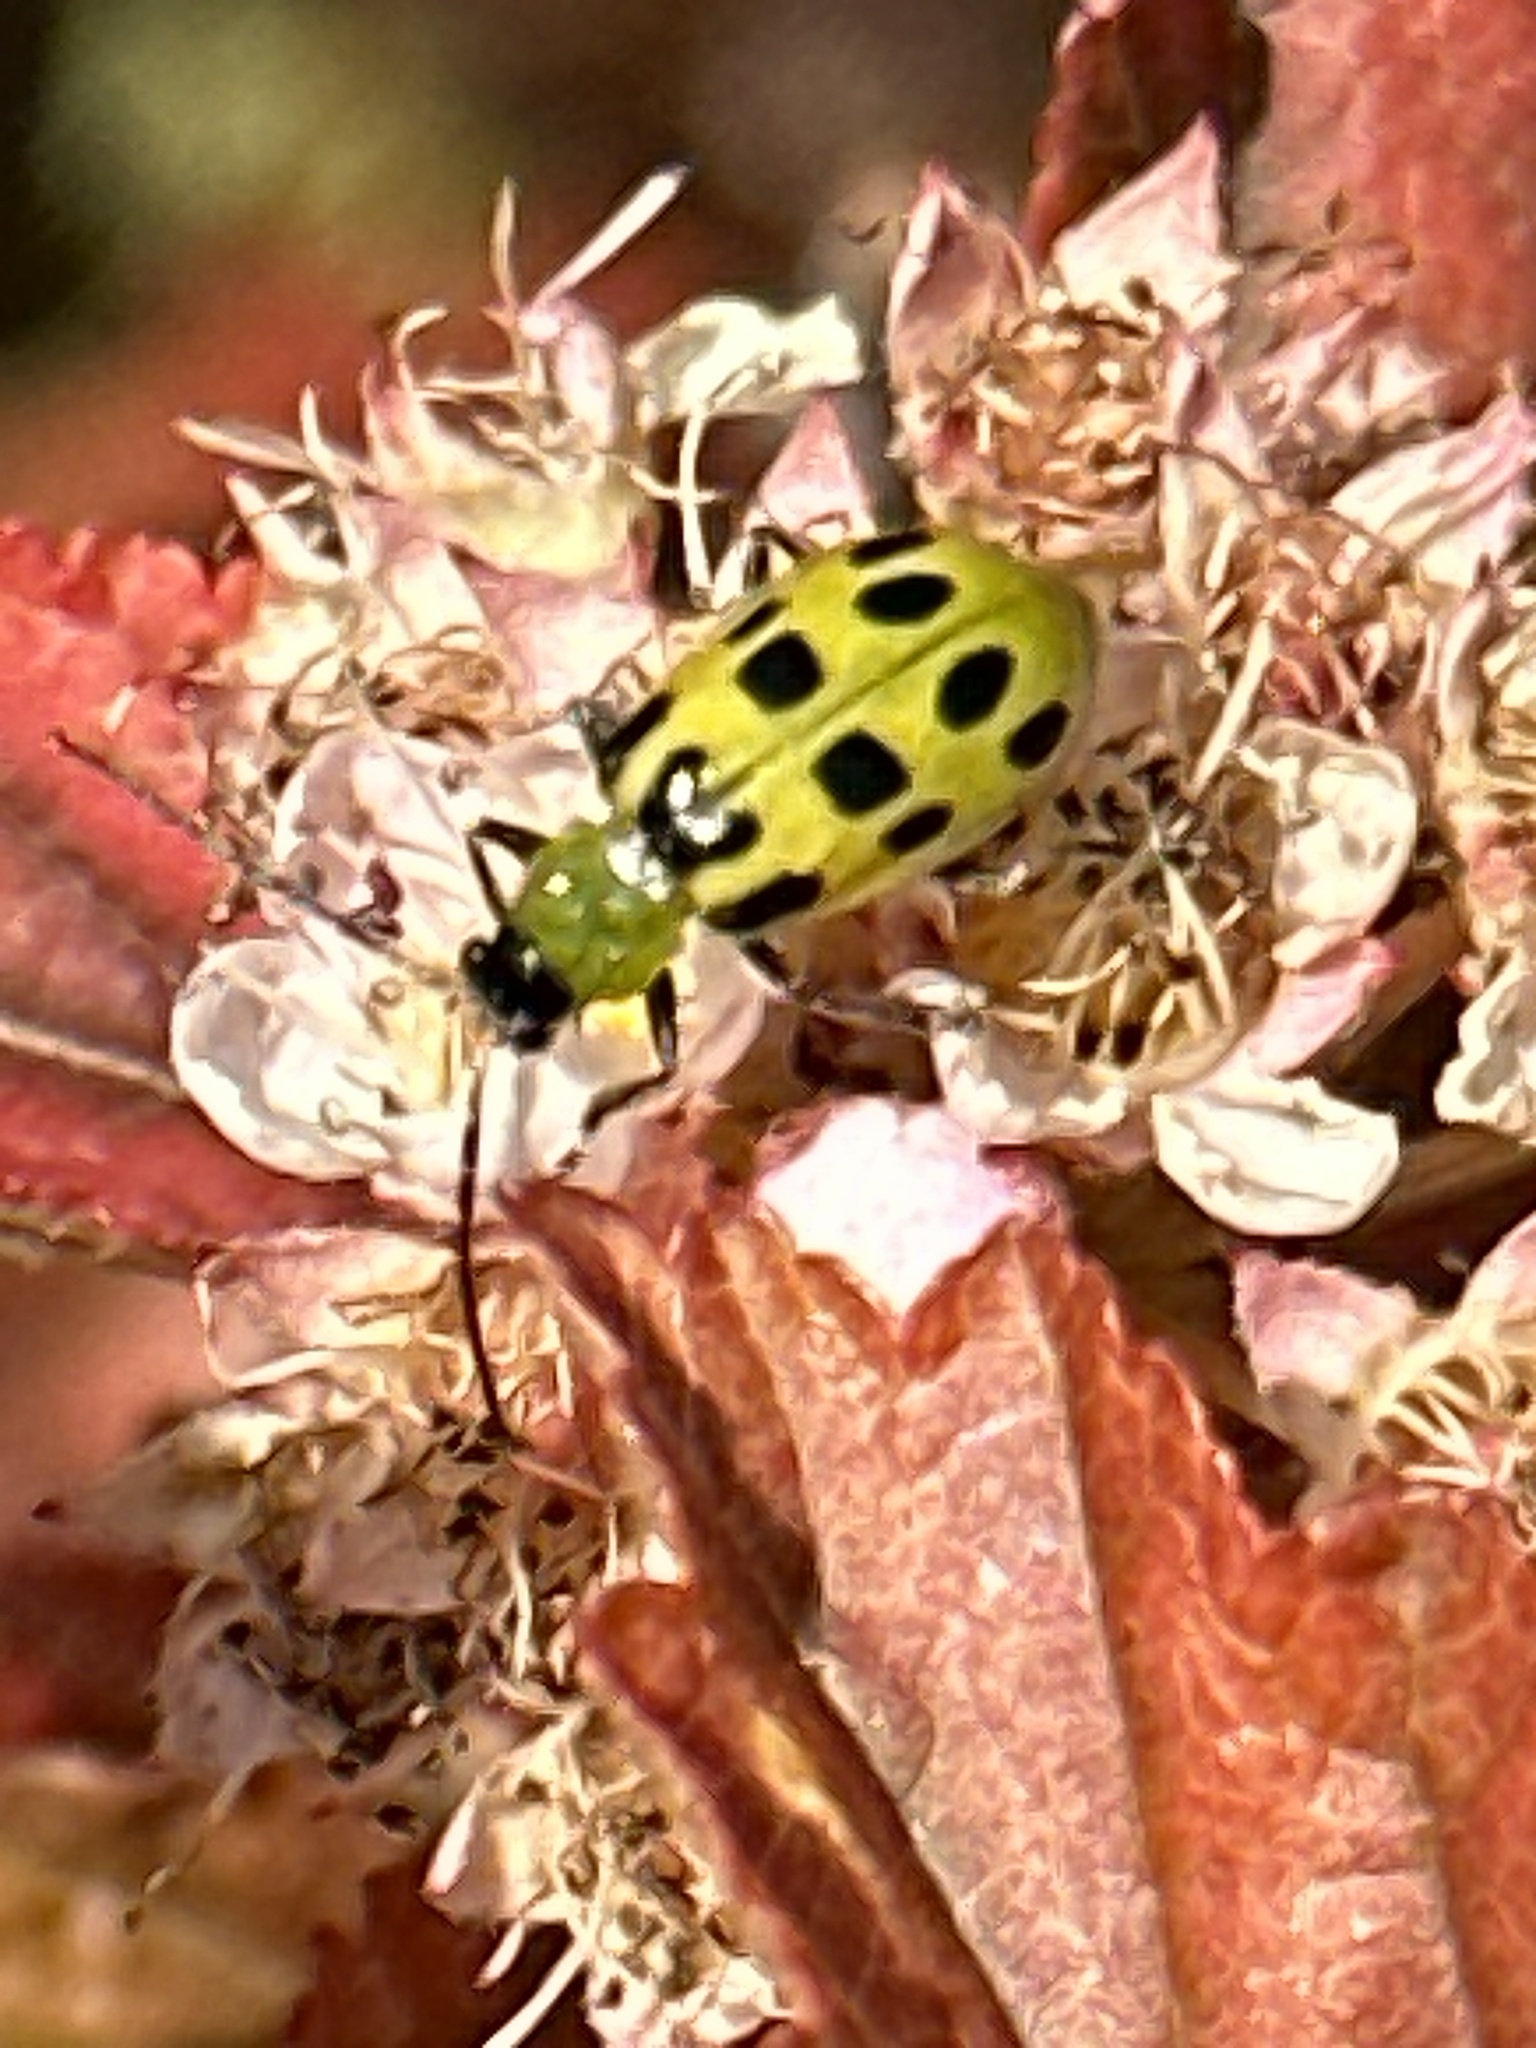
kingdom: Animalia
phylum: Arthropoda
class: Insecta
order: Coleoptera
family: Chrysomelidae
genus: Diabrotica
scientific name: Diabrotica undecimpunctata
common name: Spotted cucumber beetle
